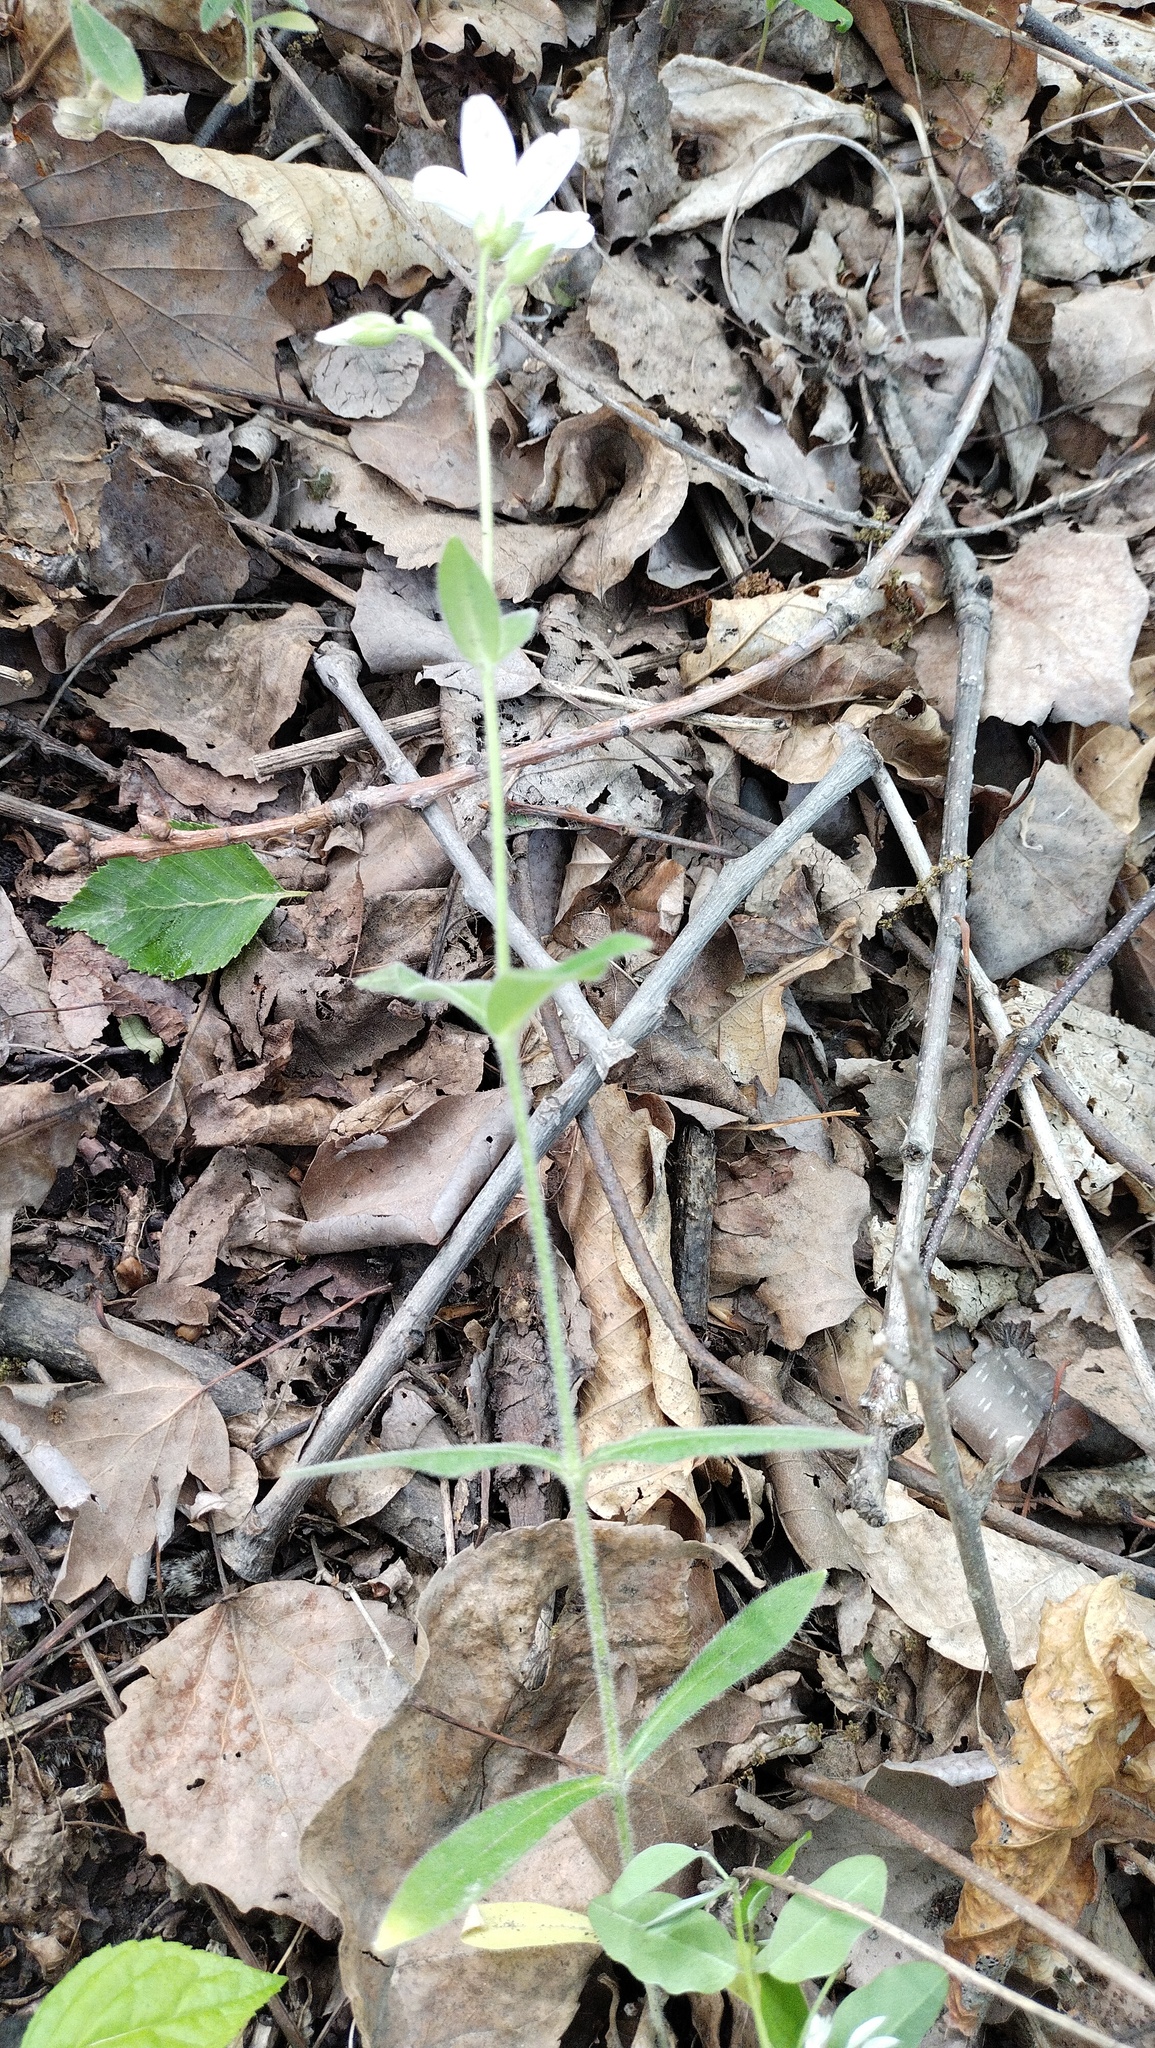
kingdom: Plantae
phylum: Tracheophyta
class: Magnoliopsida
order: Caryophyllales
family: Caryophyllaceae
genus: Cerastium
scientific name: Cerastium pauciflorum
